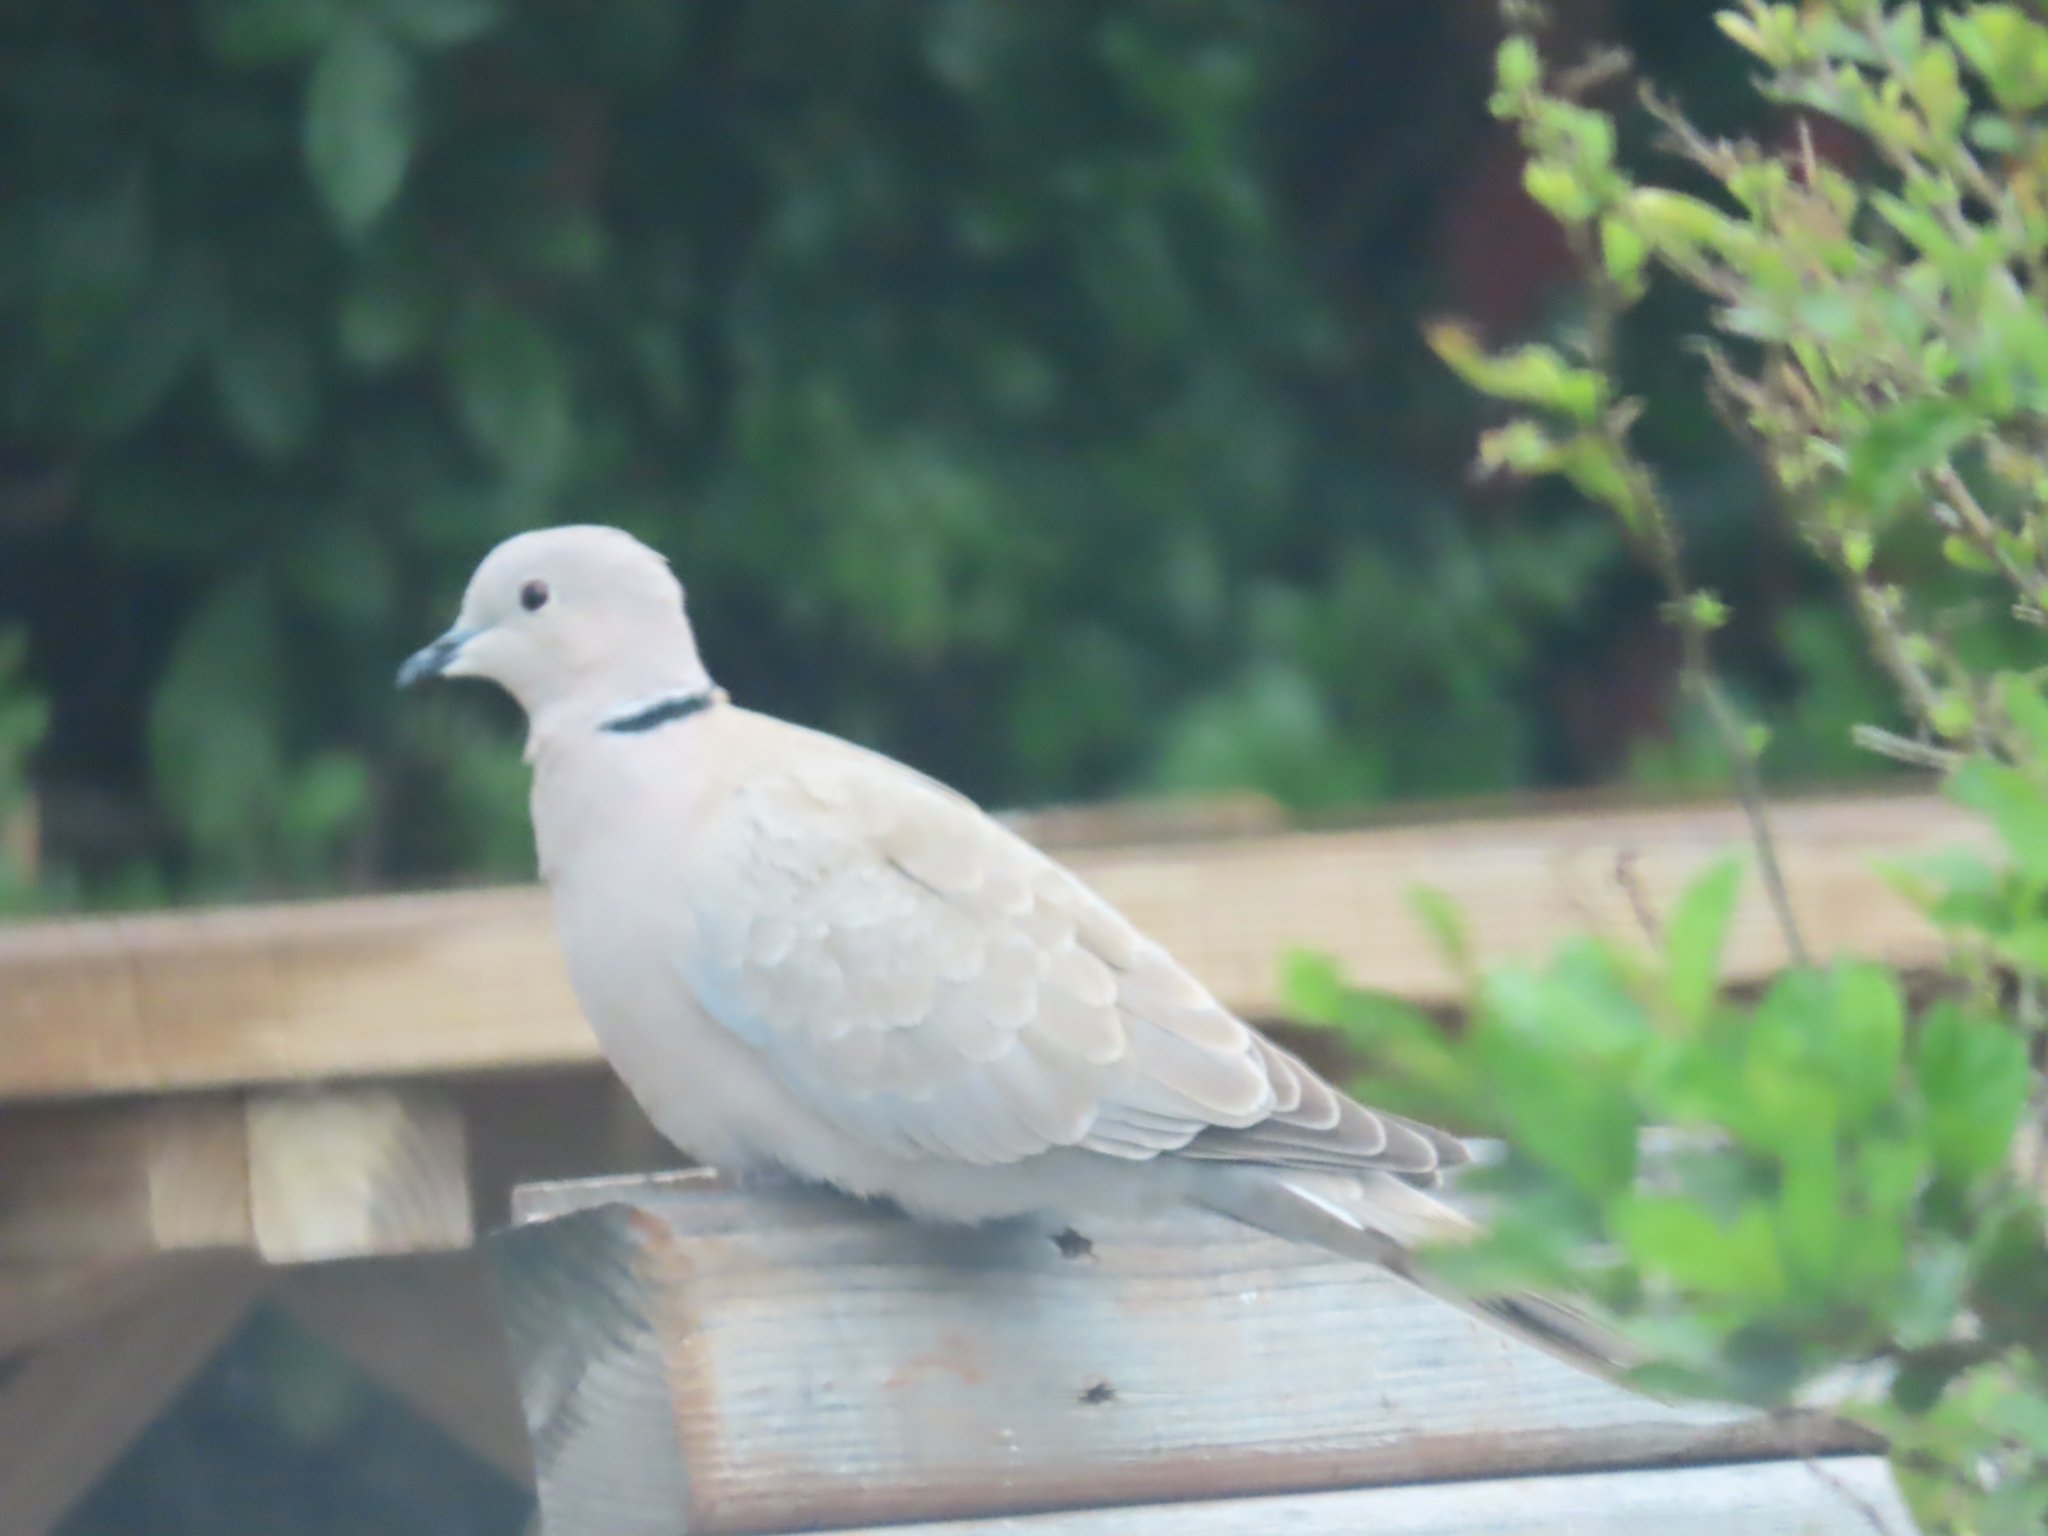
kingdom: Animalia
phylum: Chordata
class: Aves
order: Columbiformes
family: Columbidae
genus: Streptopelia
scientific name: Streptopelia decaocto
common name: Eurasian collared dove
